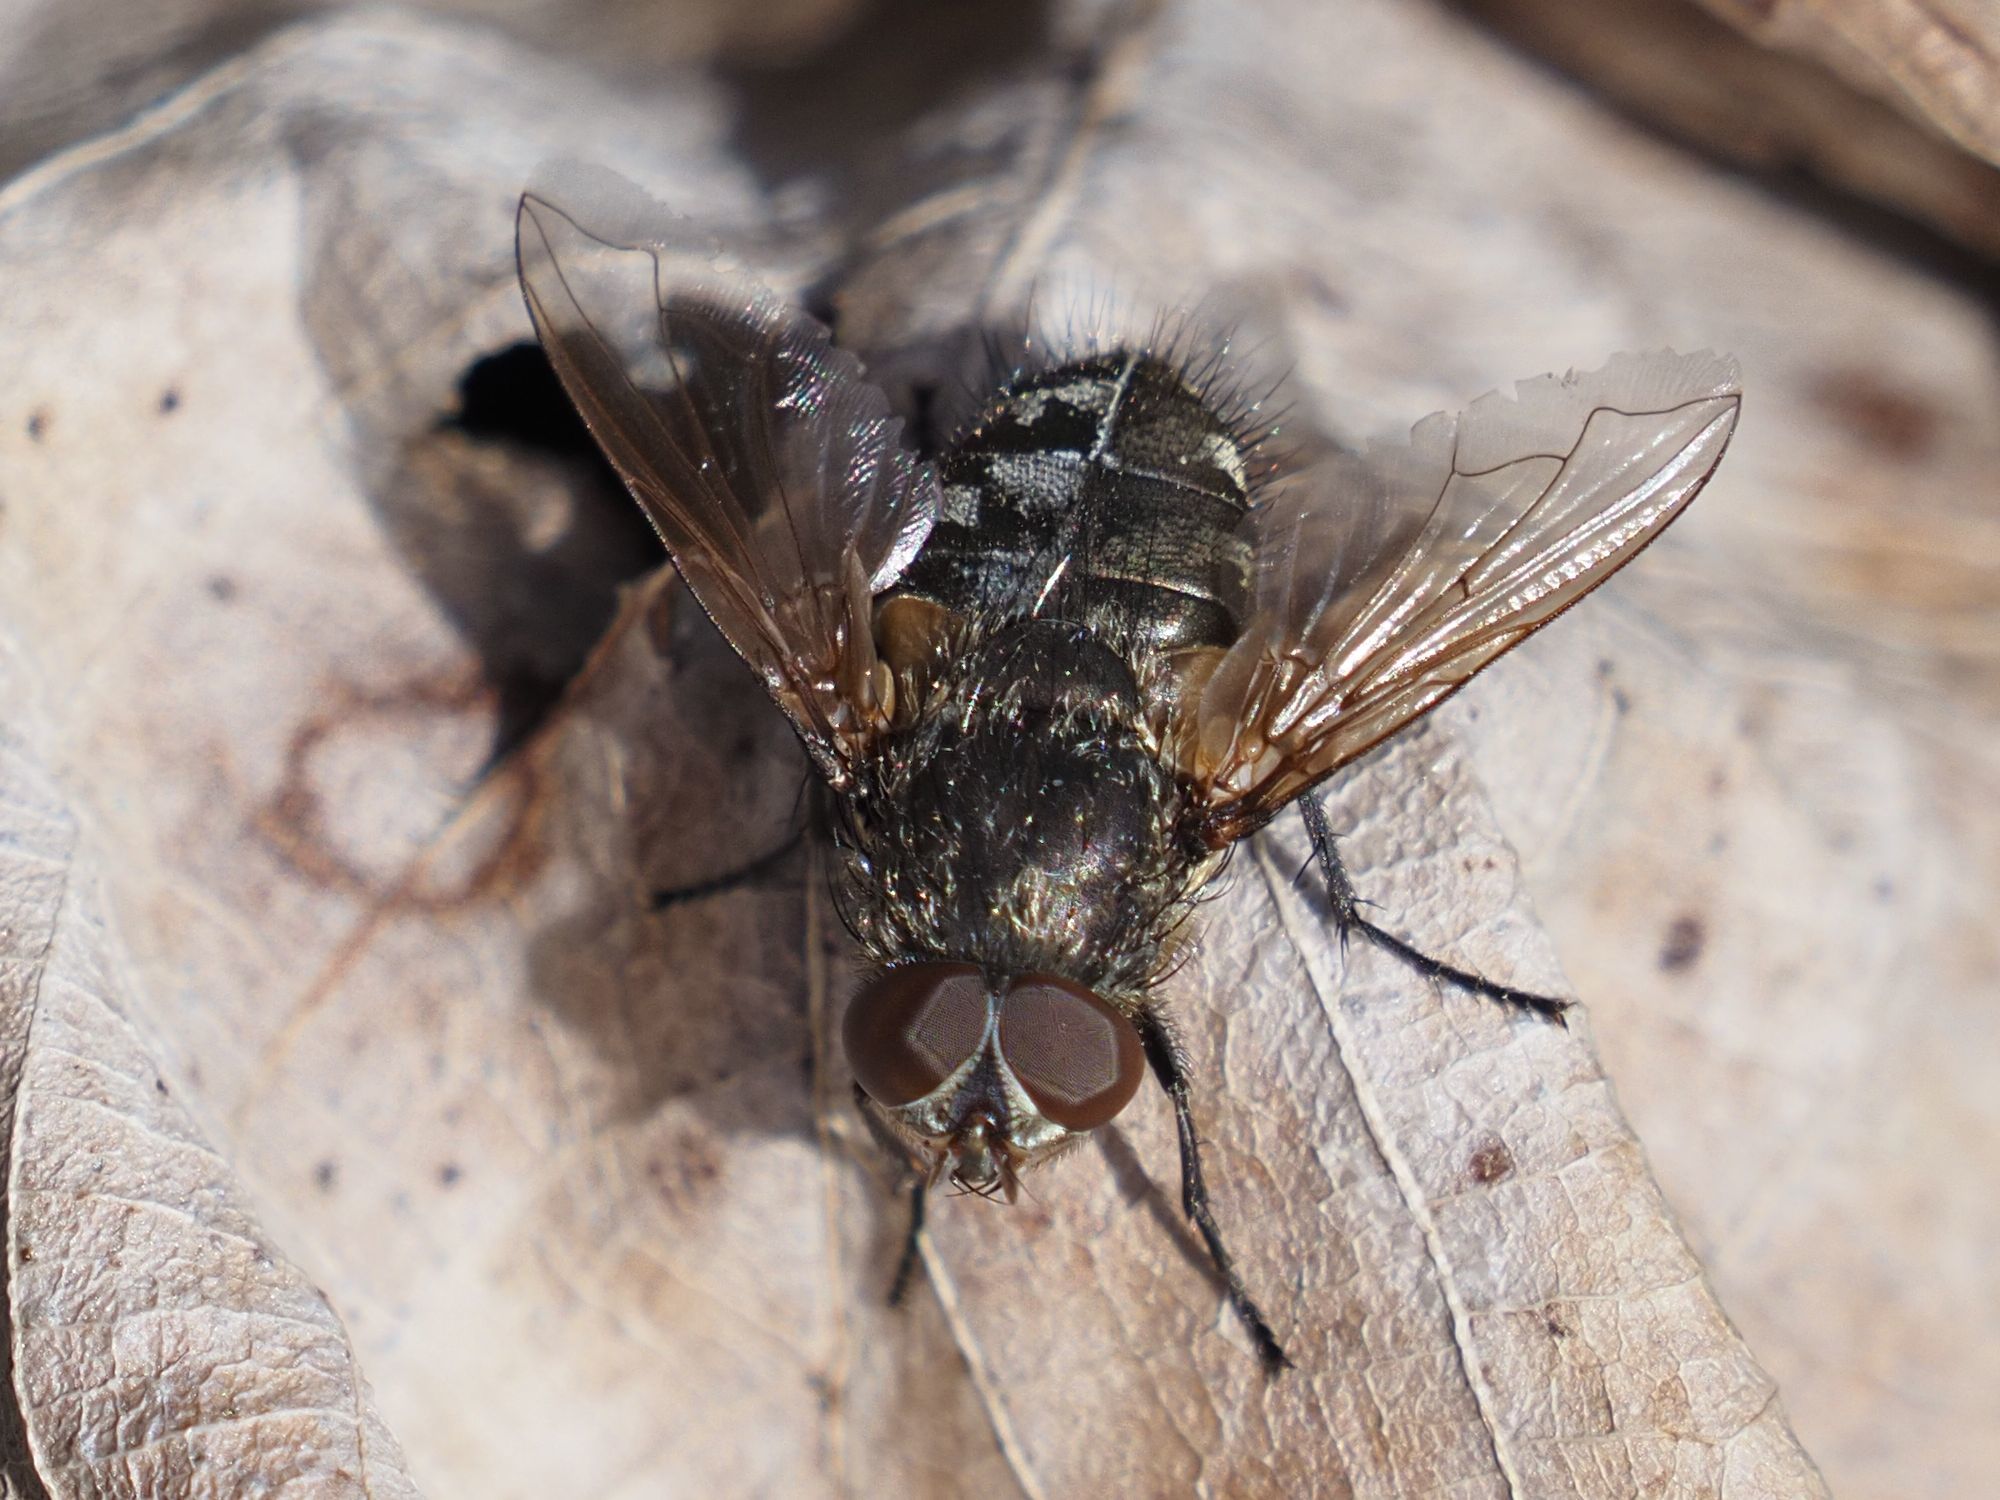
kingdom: Animalia
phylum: Arthropoda
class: Insecta
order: Diptera
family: Polleniidae
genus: Pollenia
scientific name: Pollenia angustigena
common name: Narrow-cheeked clusterfly
